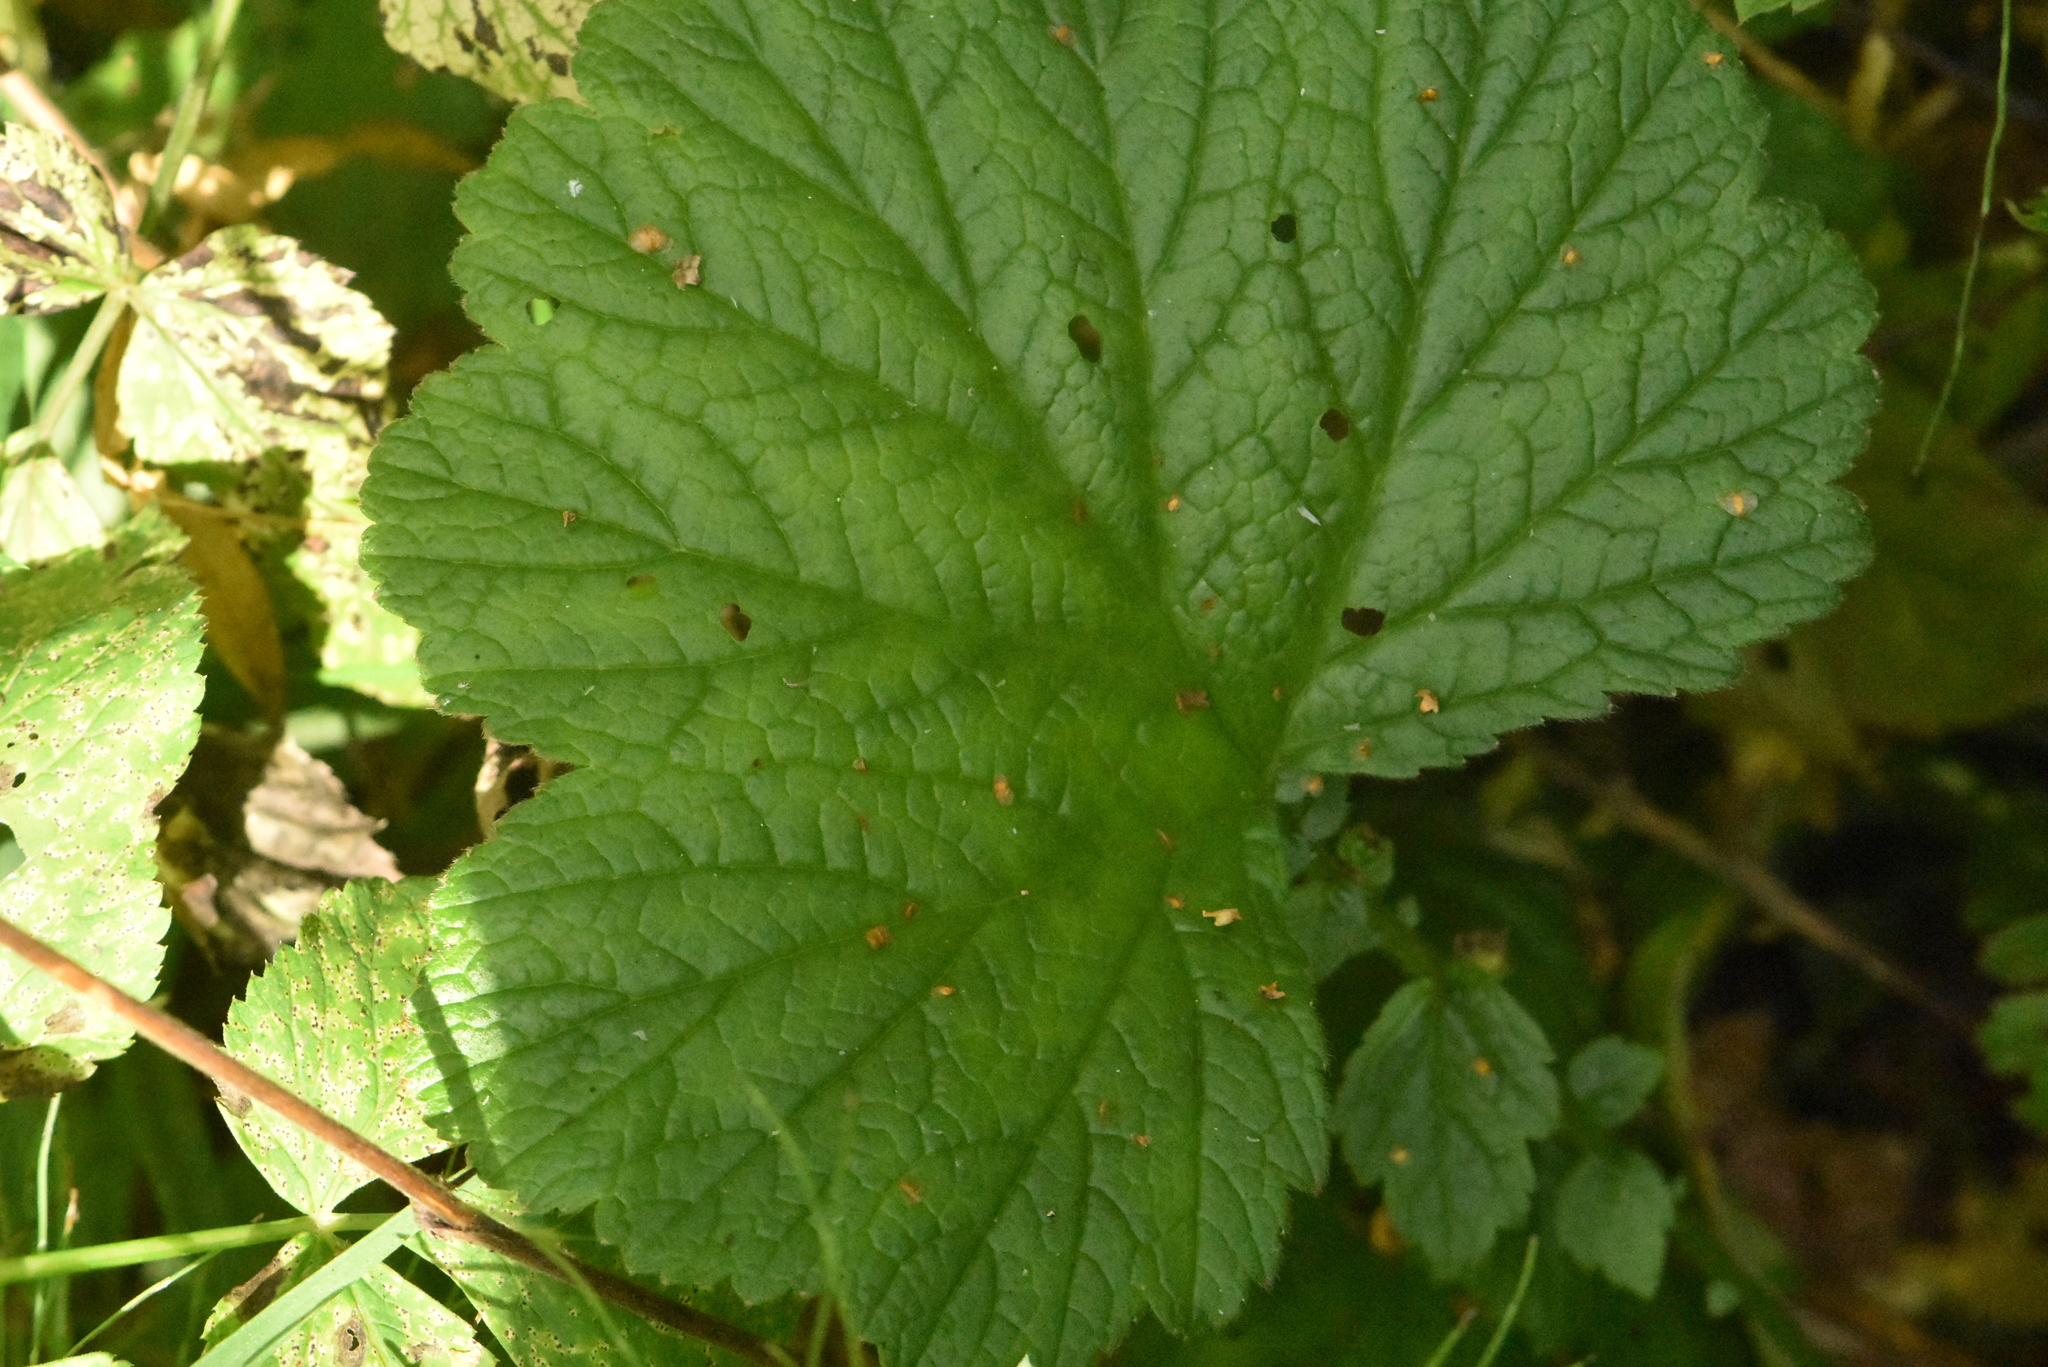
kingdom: Plantae
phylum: Tracheophyta
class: Magnoliopsida
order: Rosales
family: Rosaceae
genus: Geum
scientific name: Geum rivale
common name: Water avens
